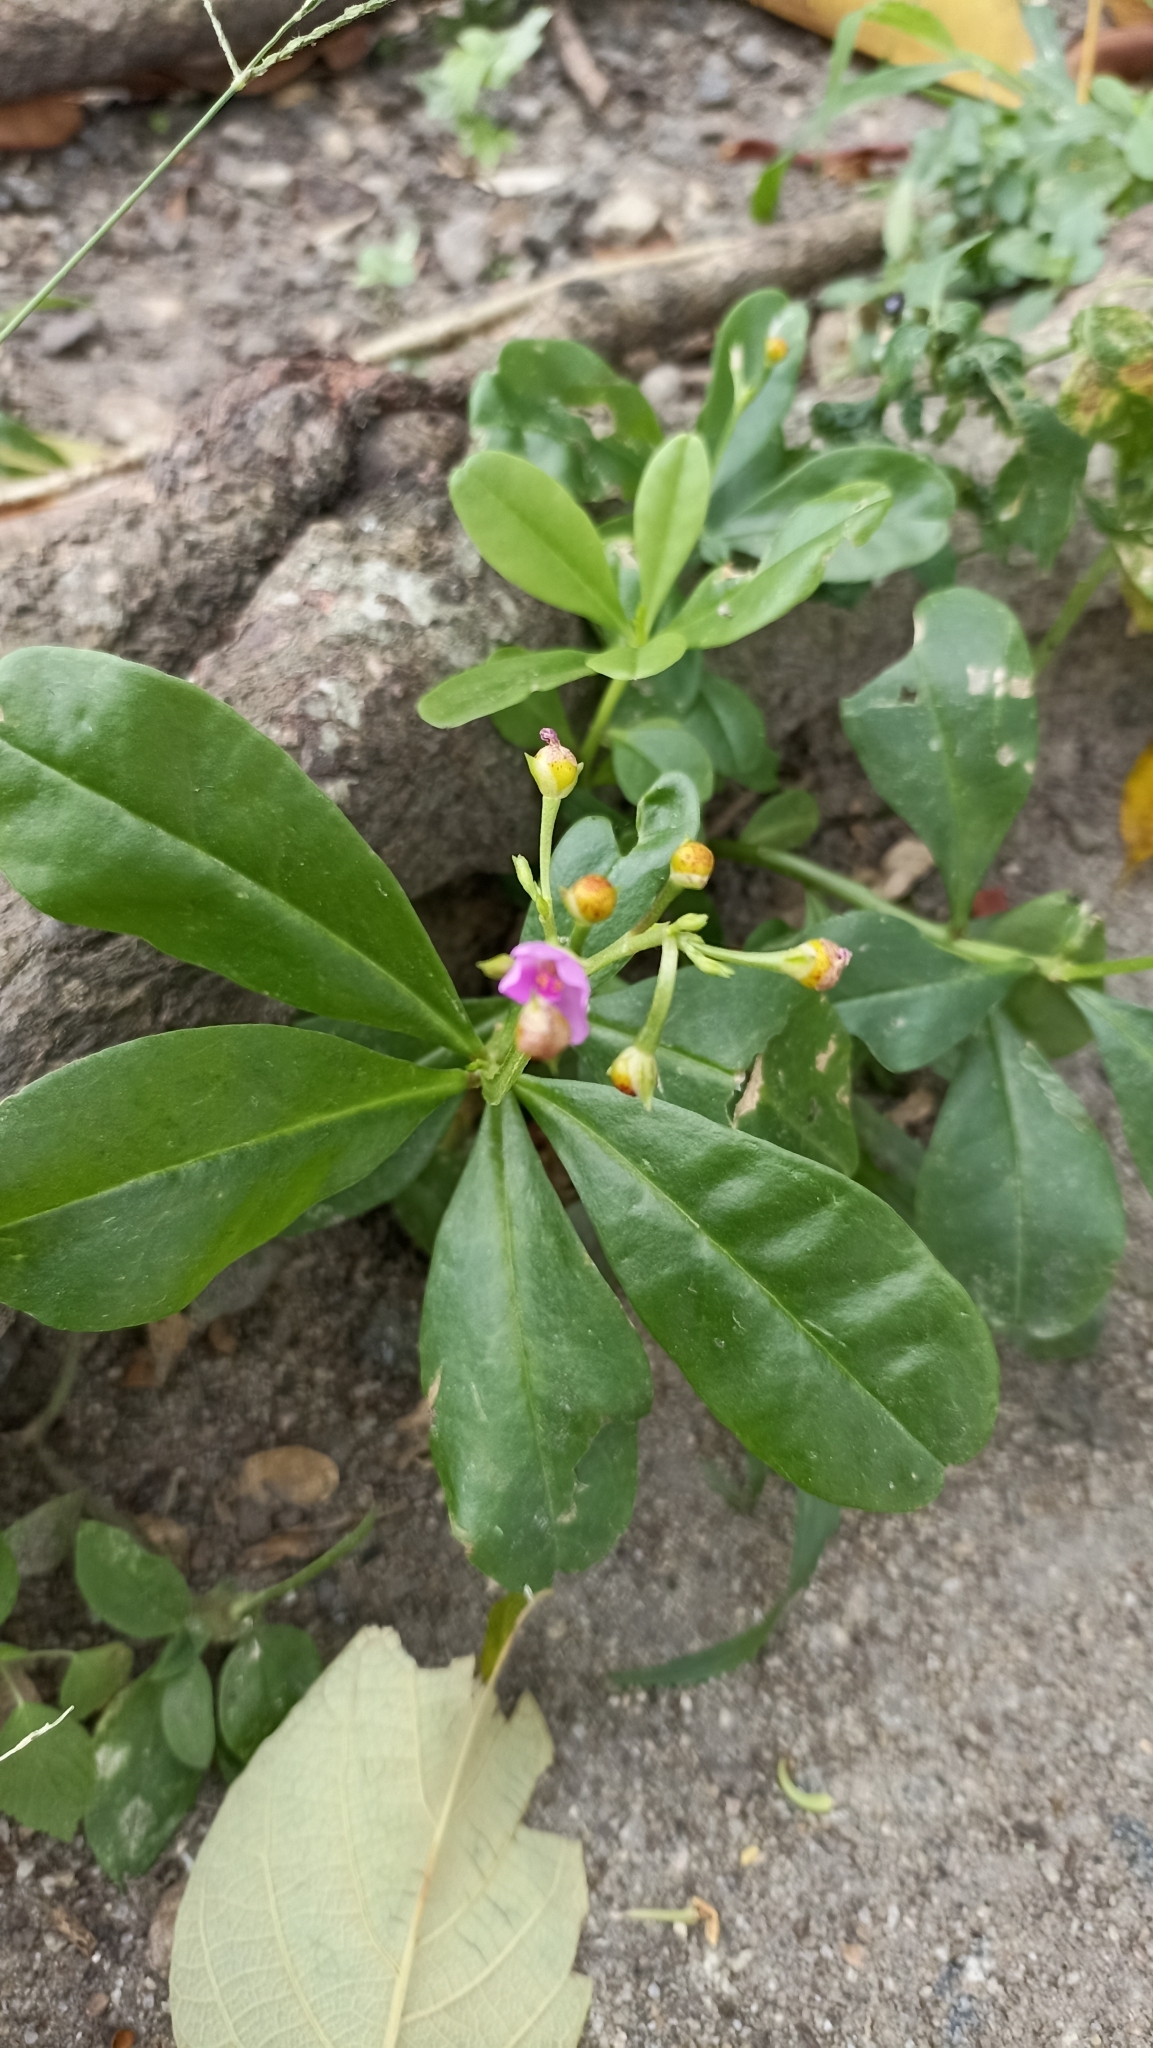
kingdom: Plantae
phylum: Tracheophyta
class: Magnoliopsida
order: Caryophyllales
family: Talinaceae
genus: Talinum
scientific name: Talinum fruticosum
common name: Verdolaga-francesa
